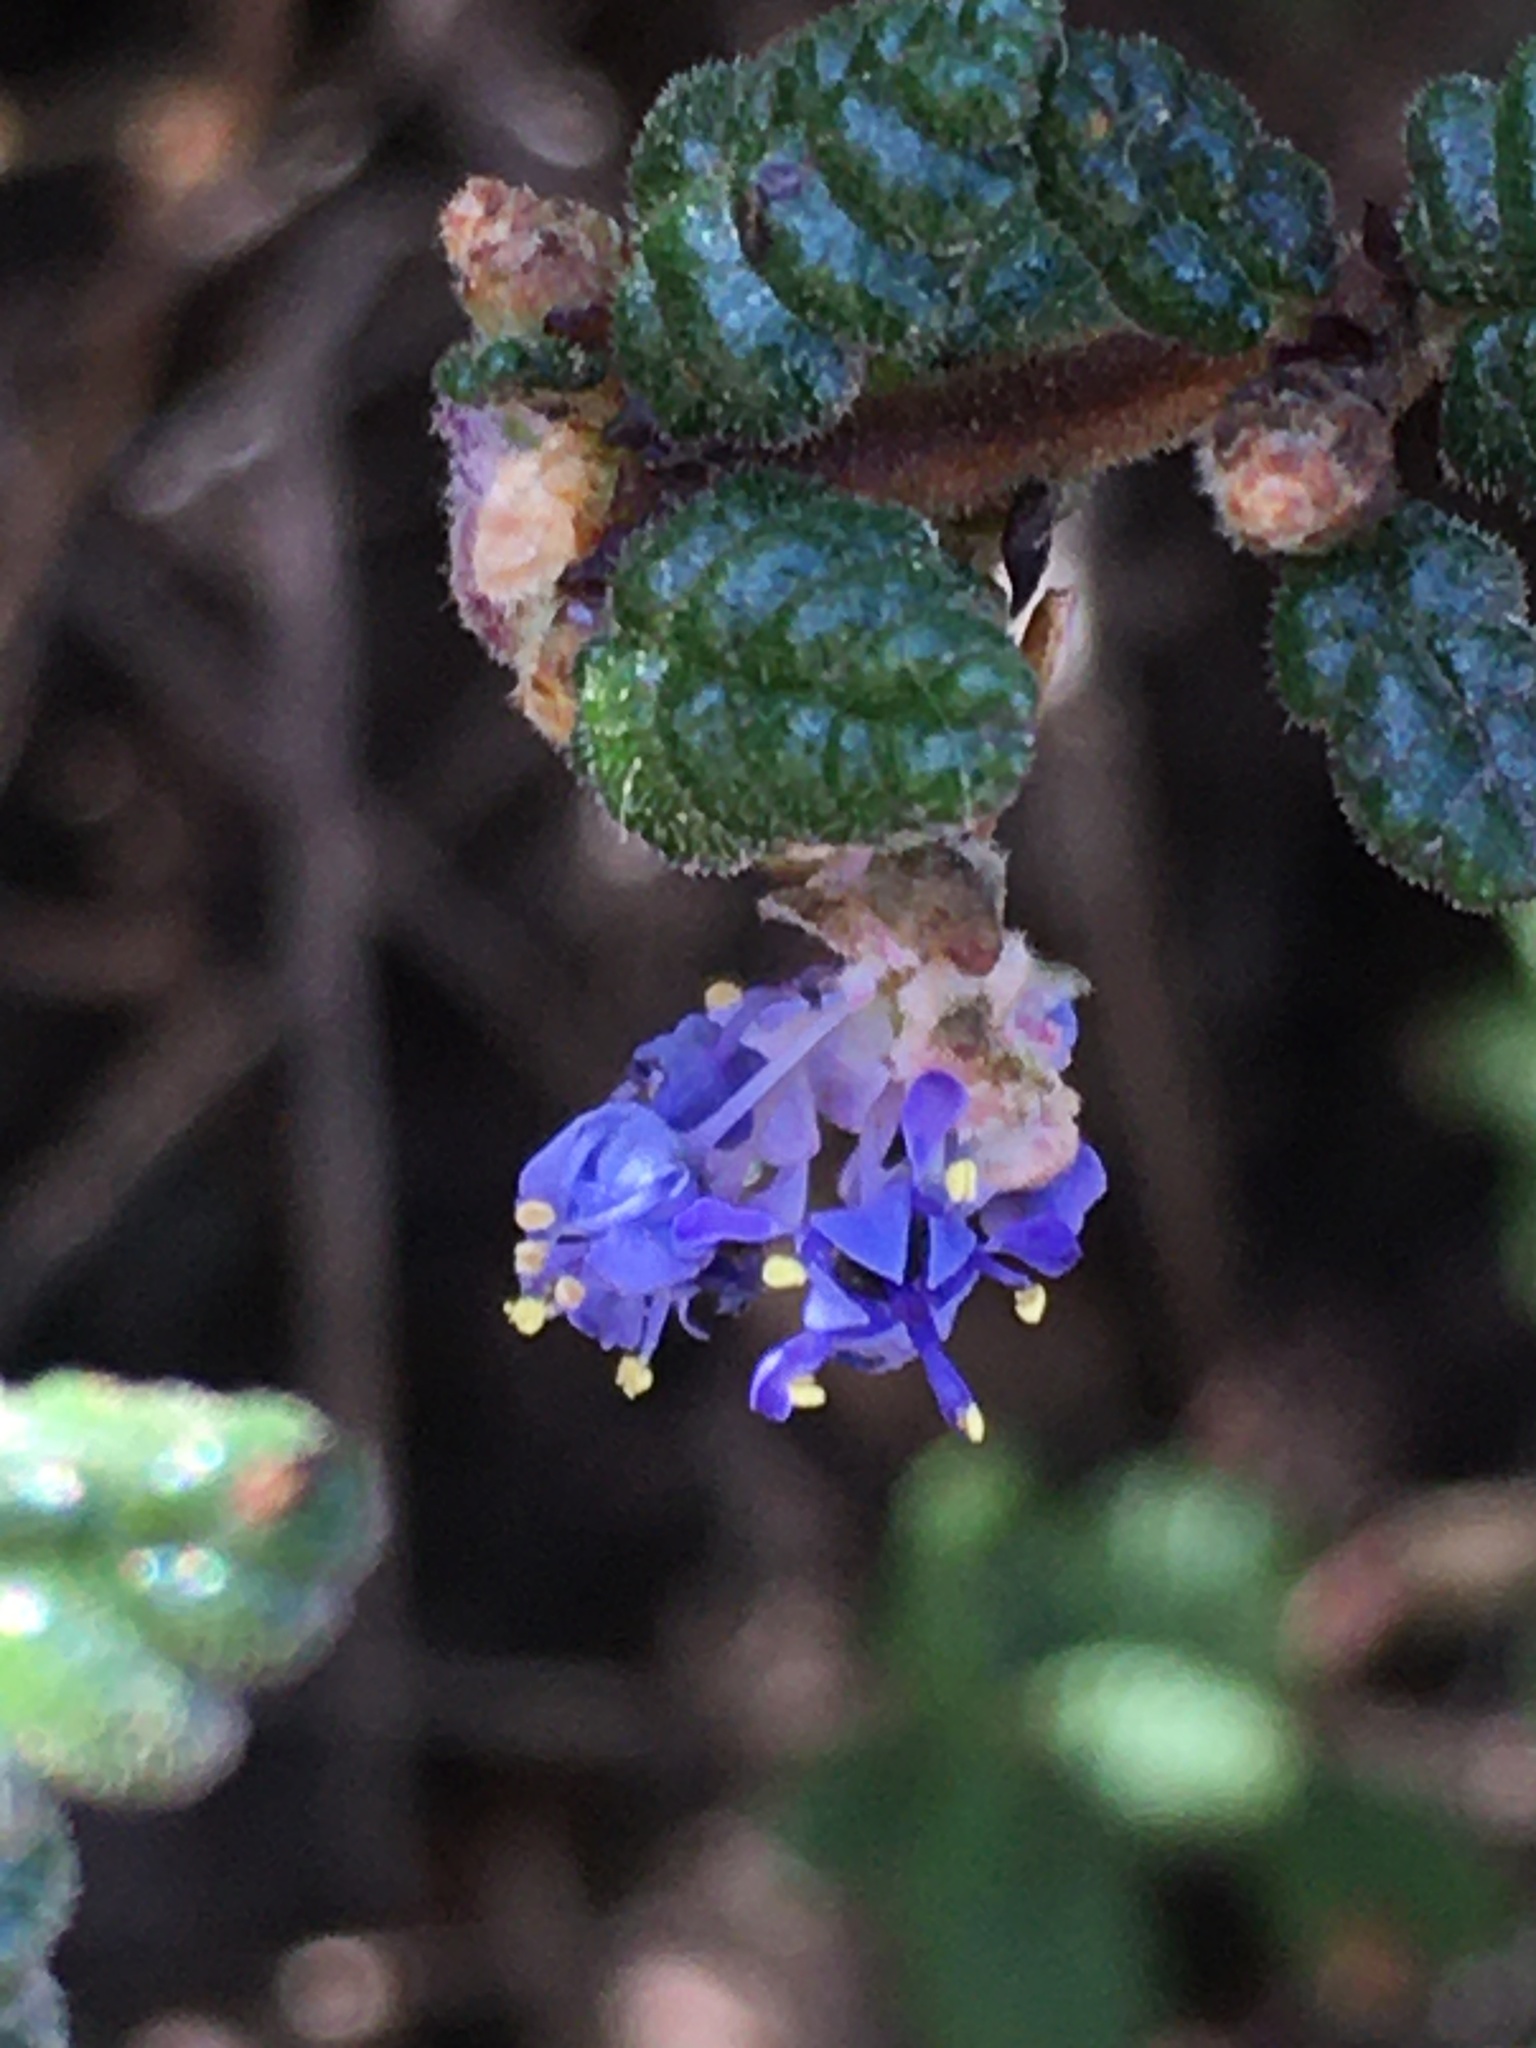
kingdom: Plantae
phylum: Tracheophyta
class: Magnoliopsida
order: Rosales
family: Rhamnaceae
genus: Ceanothus
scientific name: Ceanothus impressus
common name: Santa barbara ceanothus
